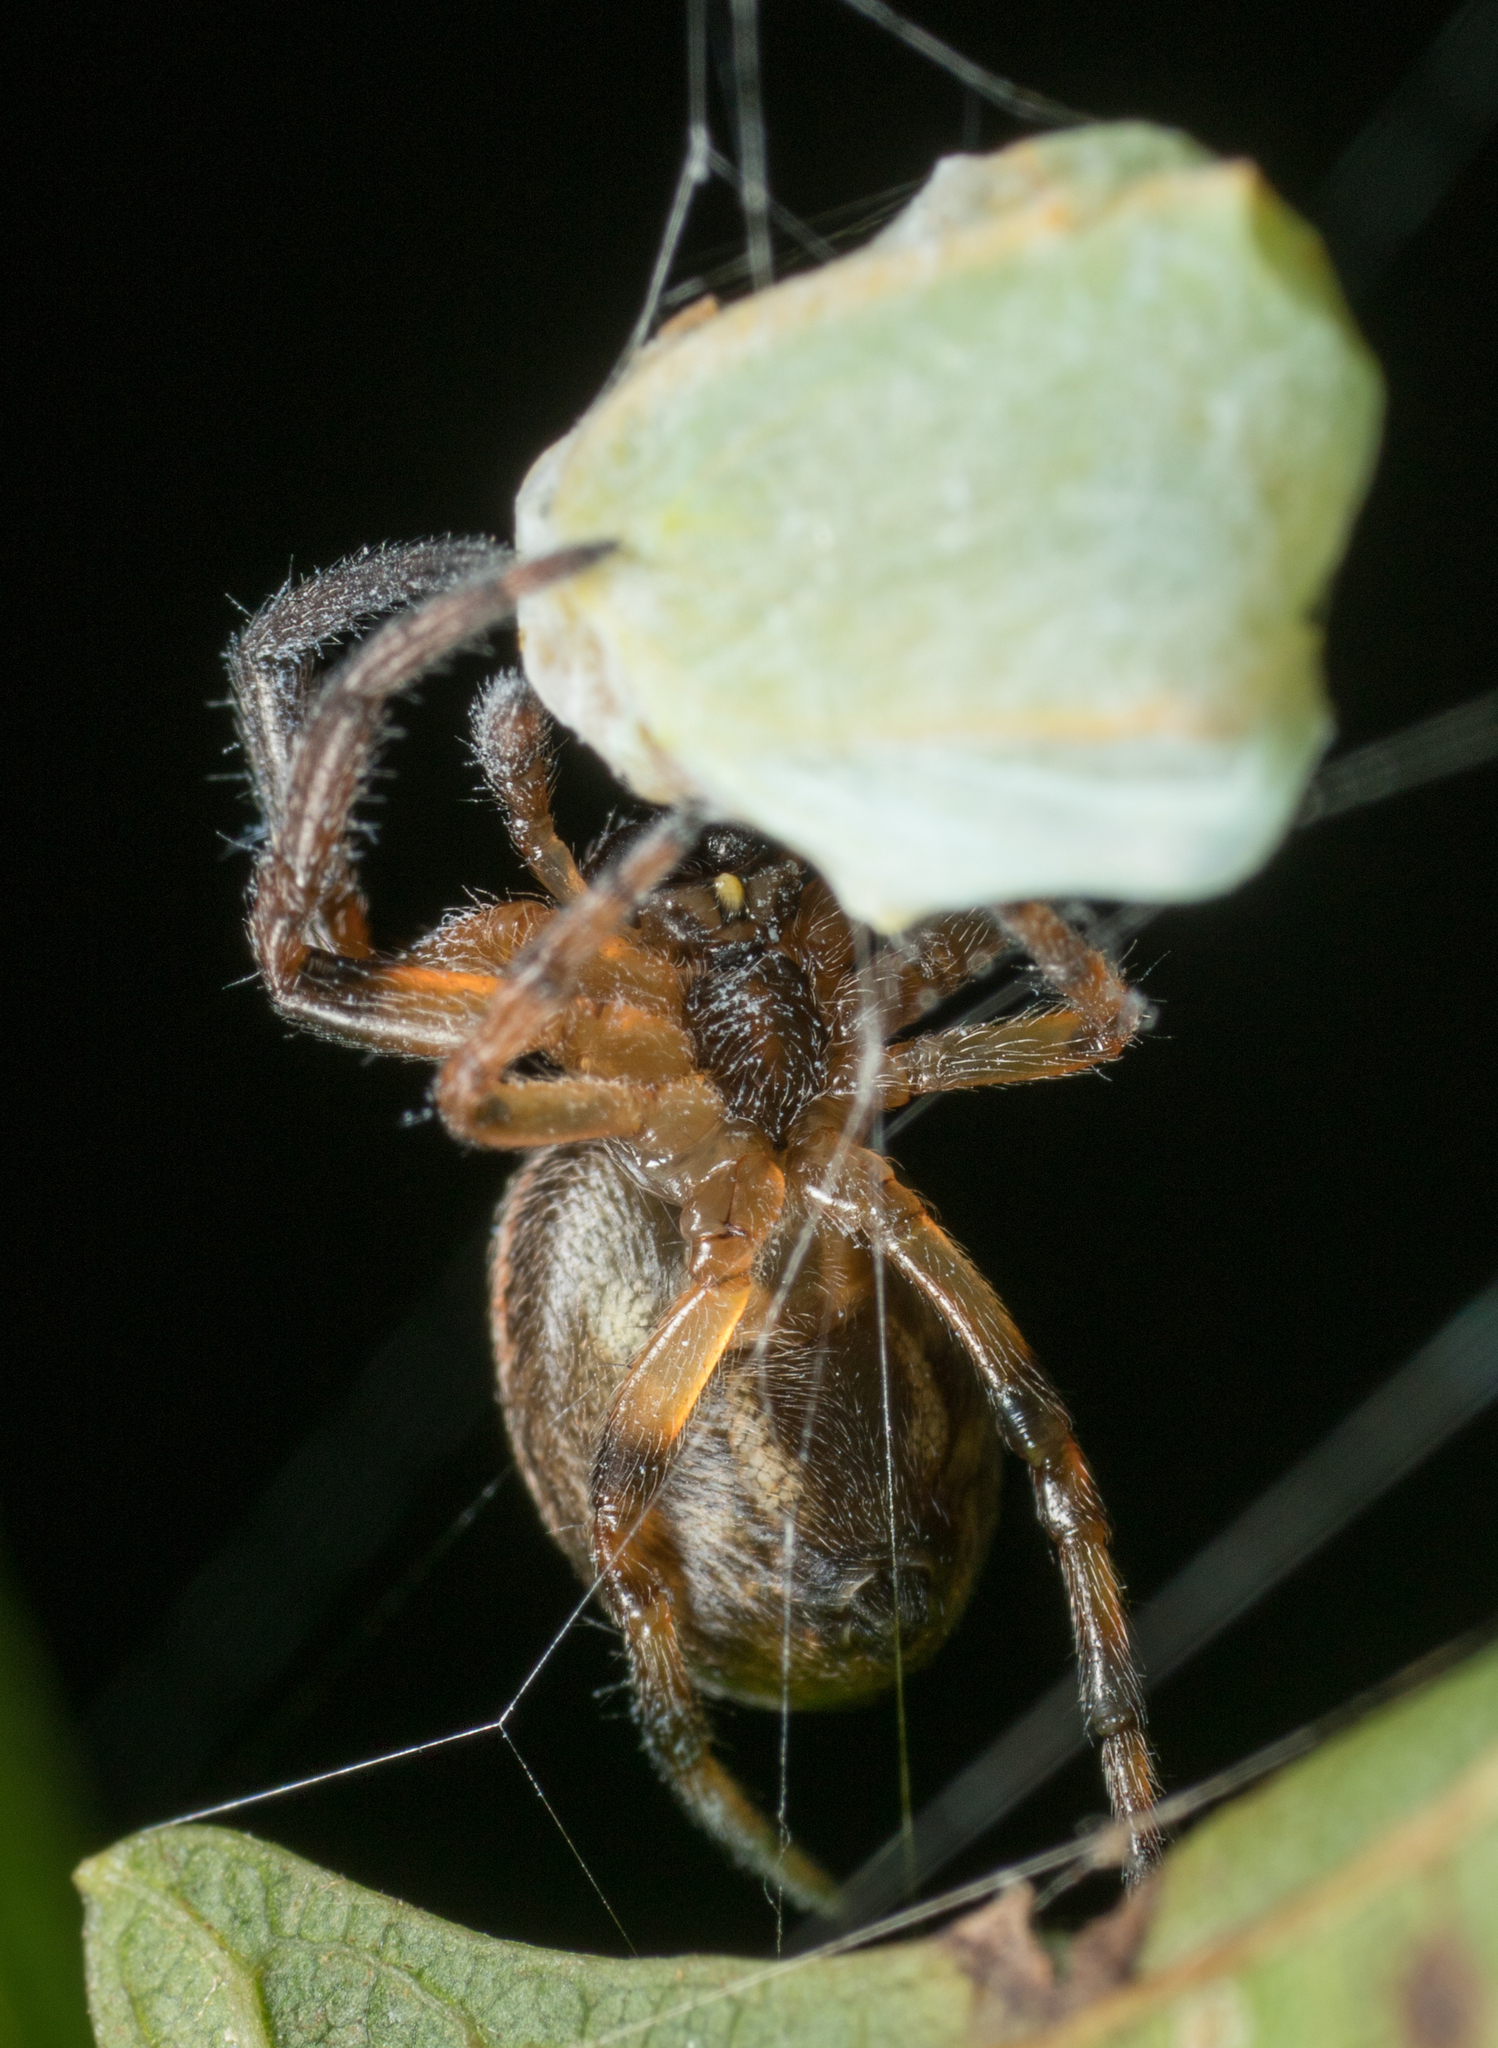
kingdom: Animalia
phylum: Arthropoda
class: Arachnida
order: Araneae
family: Araneidae
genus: Larinioides
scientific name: Larinioides cornutus
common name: Furrow orbweaver
